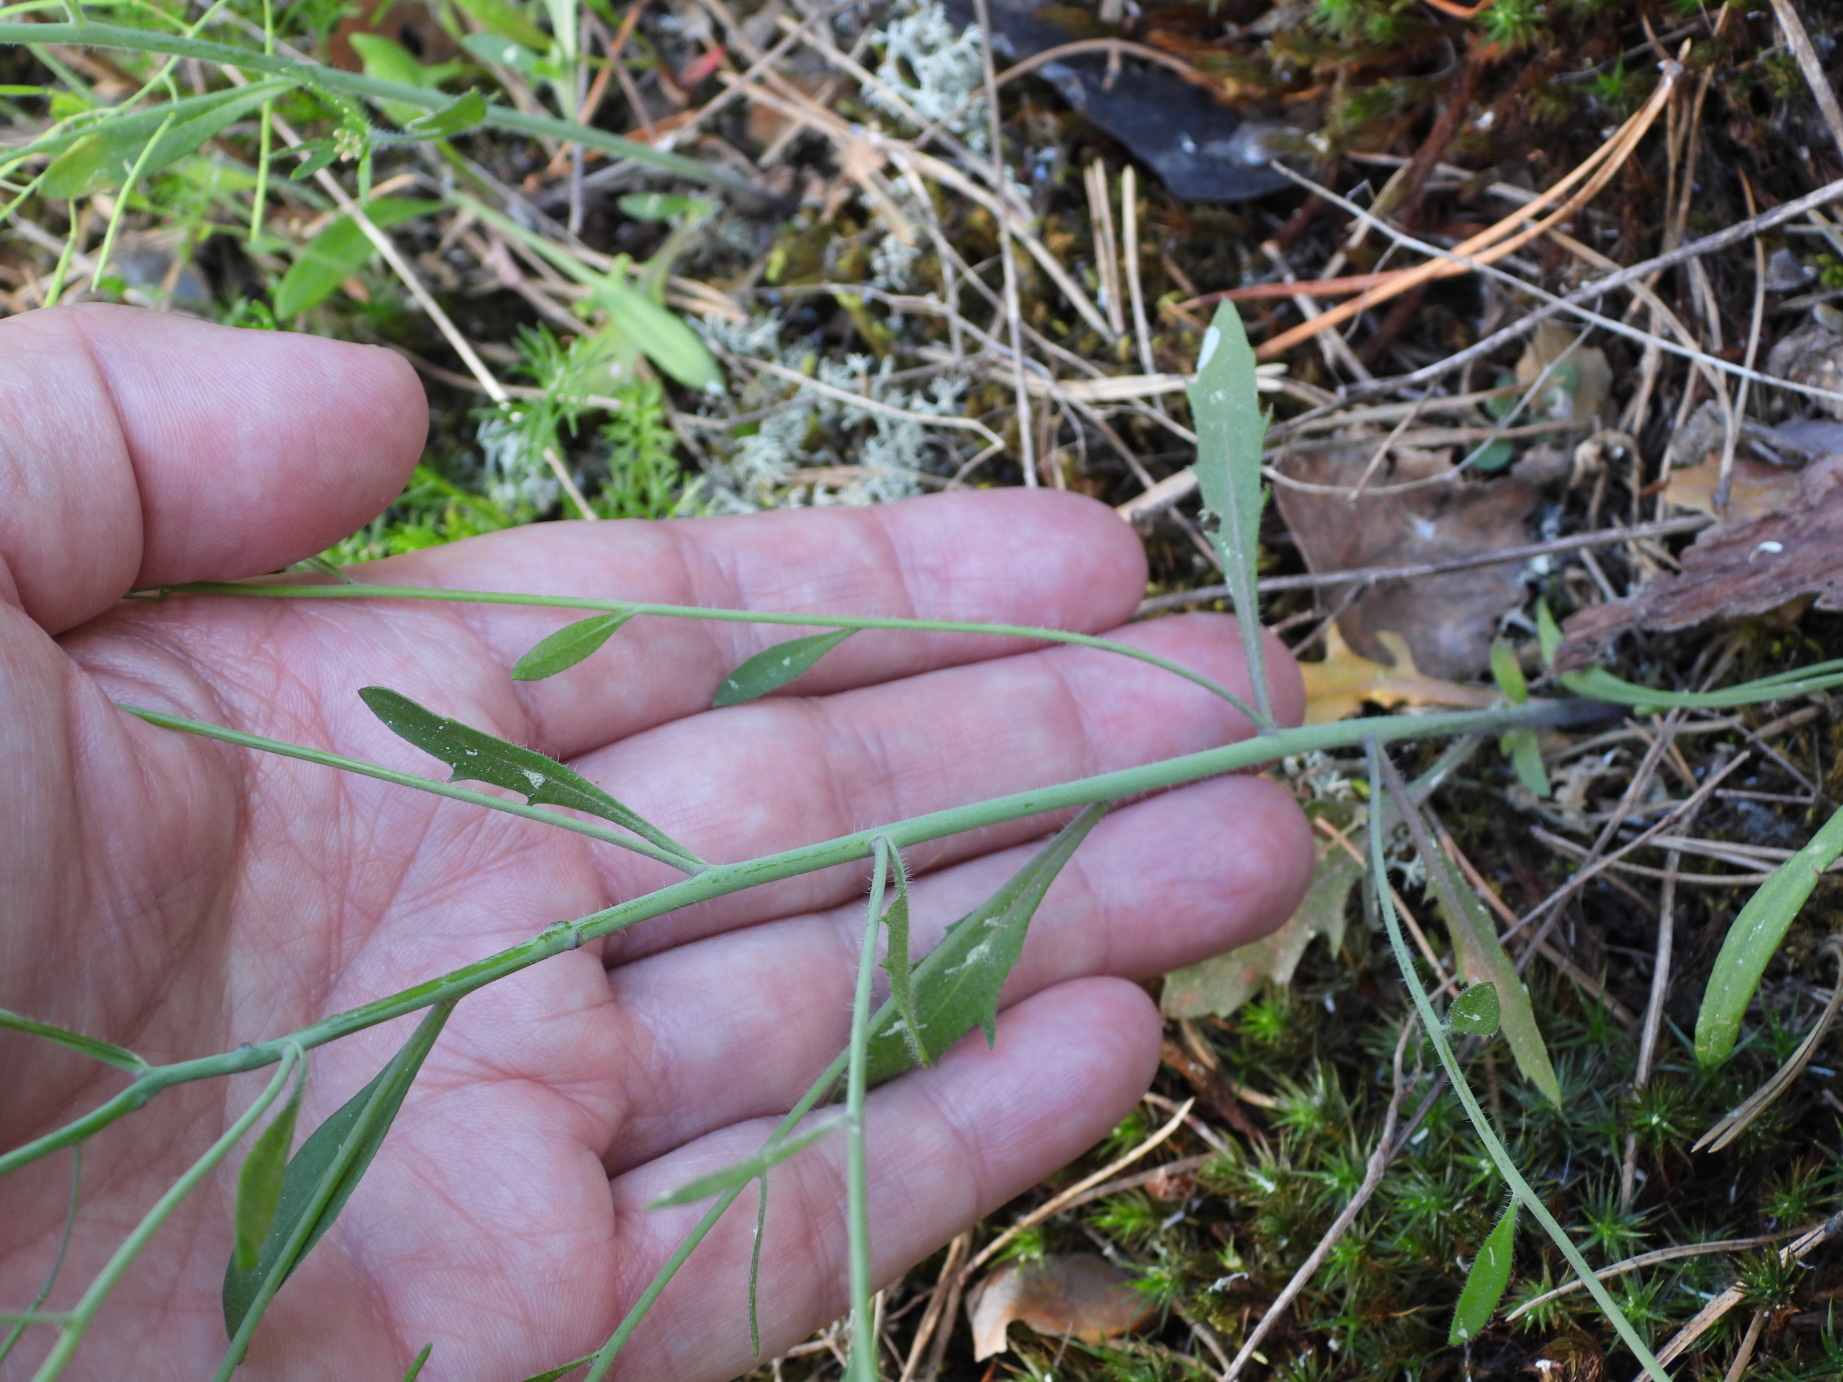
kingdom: Plantae
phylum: Tracheophyta
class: Magnoliopsida
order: Brassicales
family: Brassicaceae
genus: Arabidopsis
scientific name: Arabidopsis suecica
